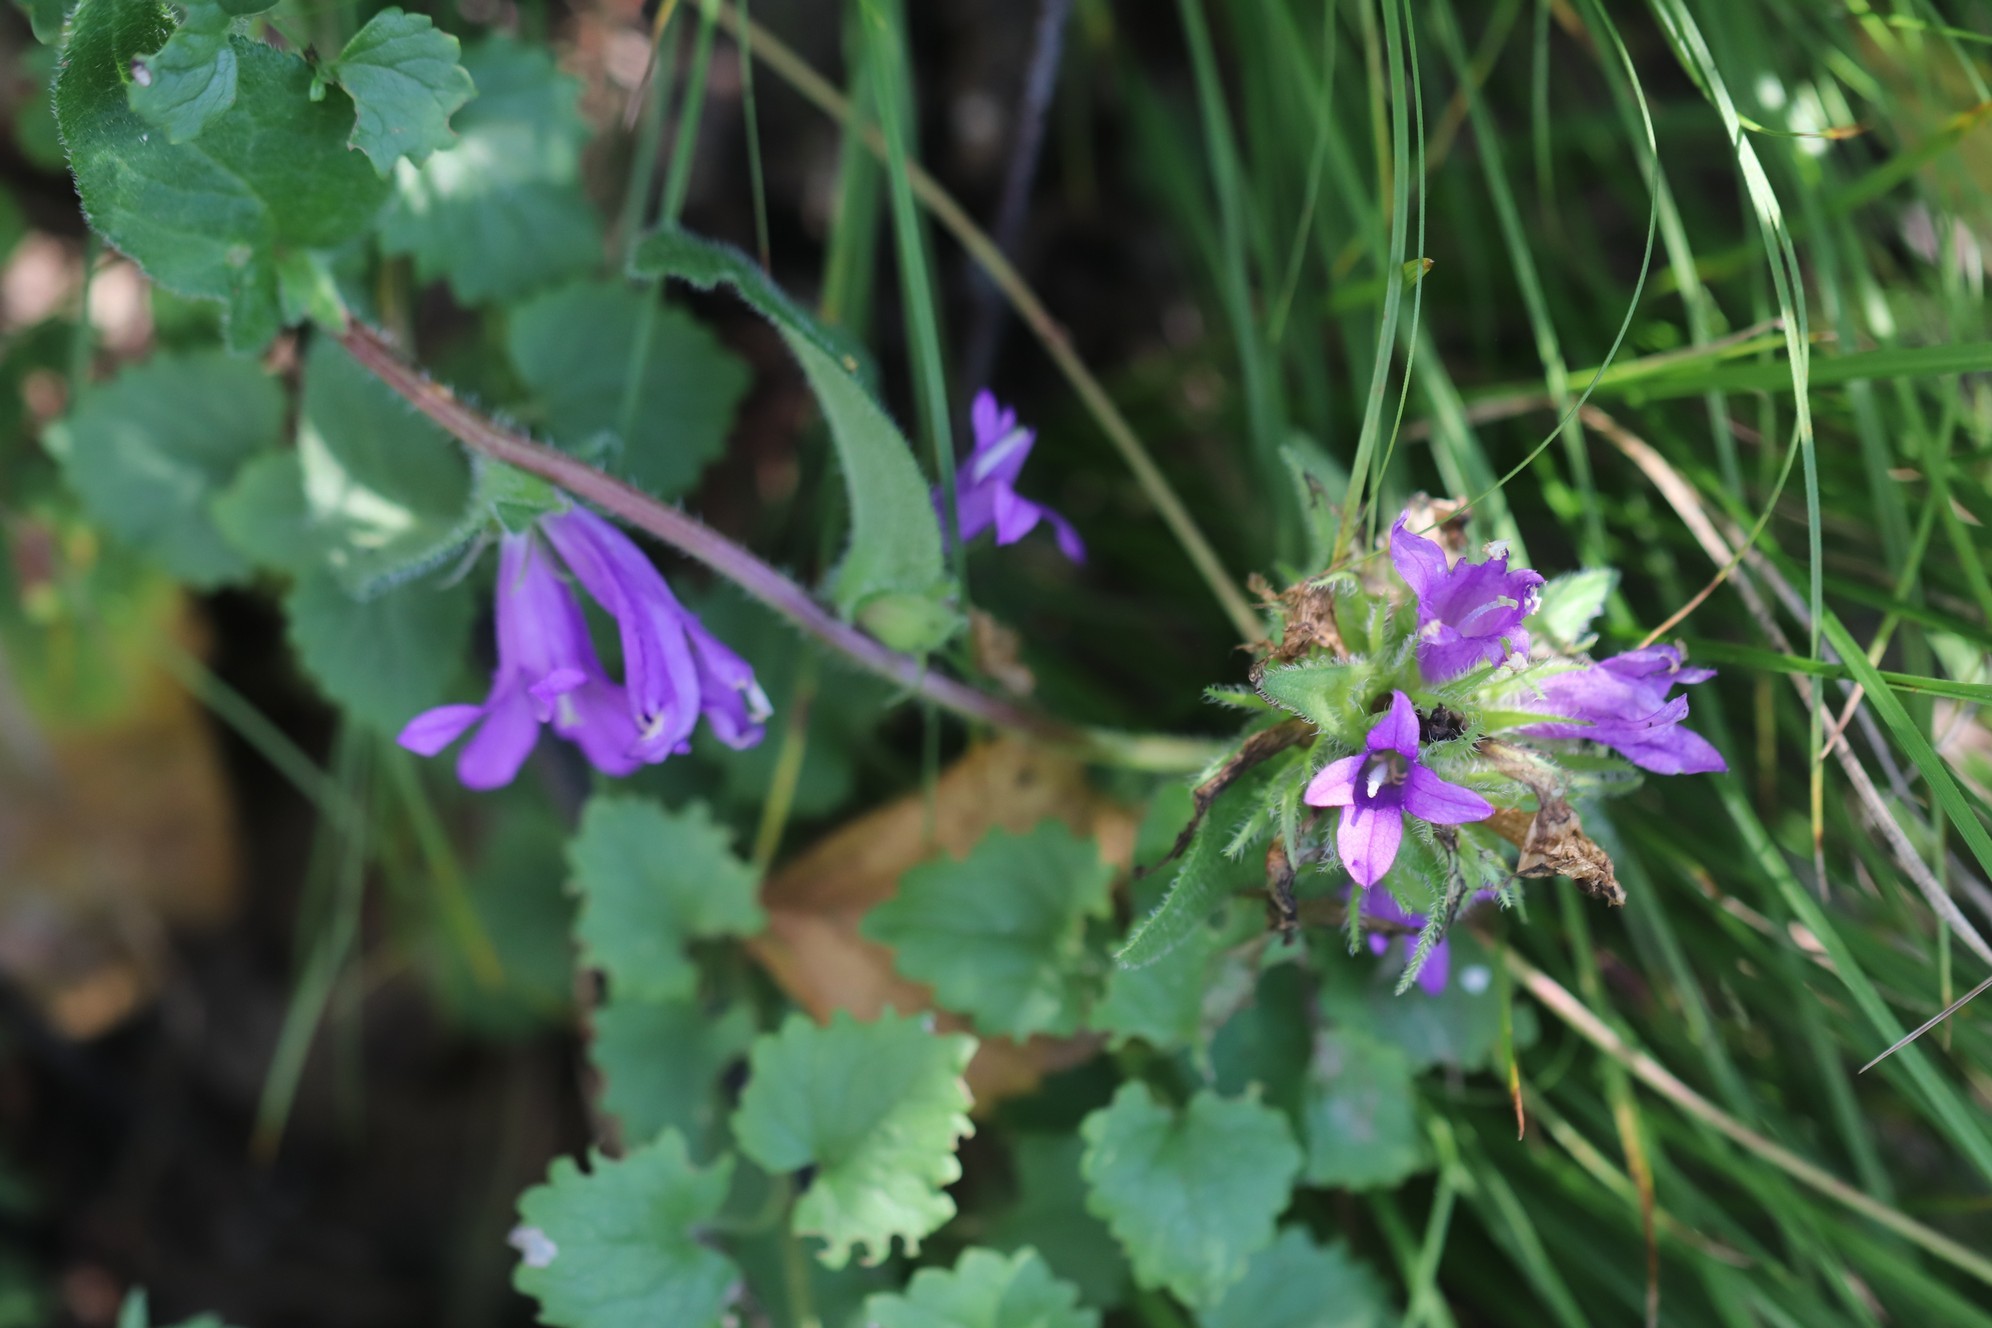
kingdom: Plantae
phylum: Tracheophyta
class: Magnoliopsida
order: Asterales
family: Campanulaceae
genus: Campanula
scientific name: Campanula glomerata
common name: Clustered bellflower
